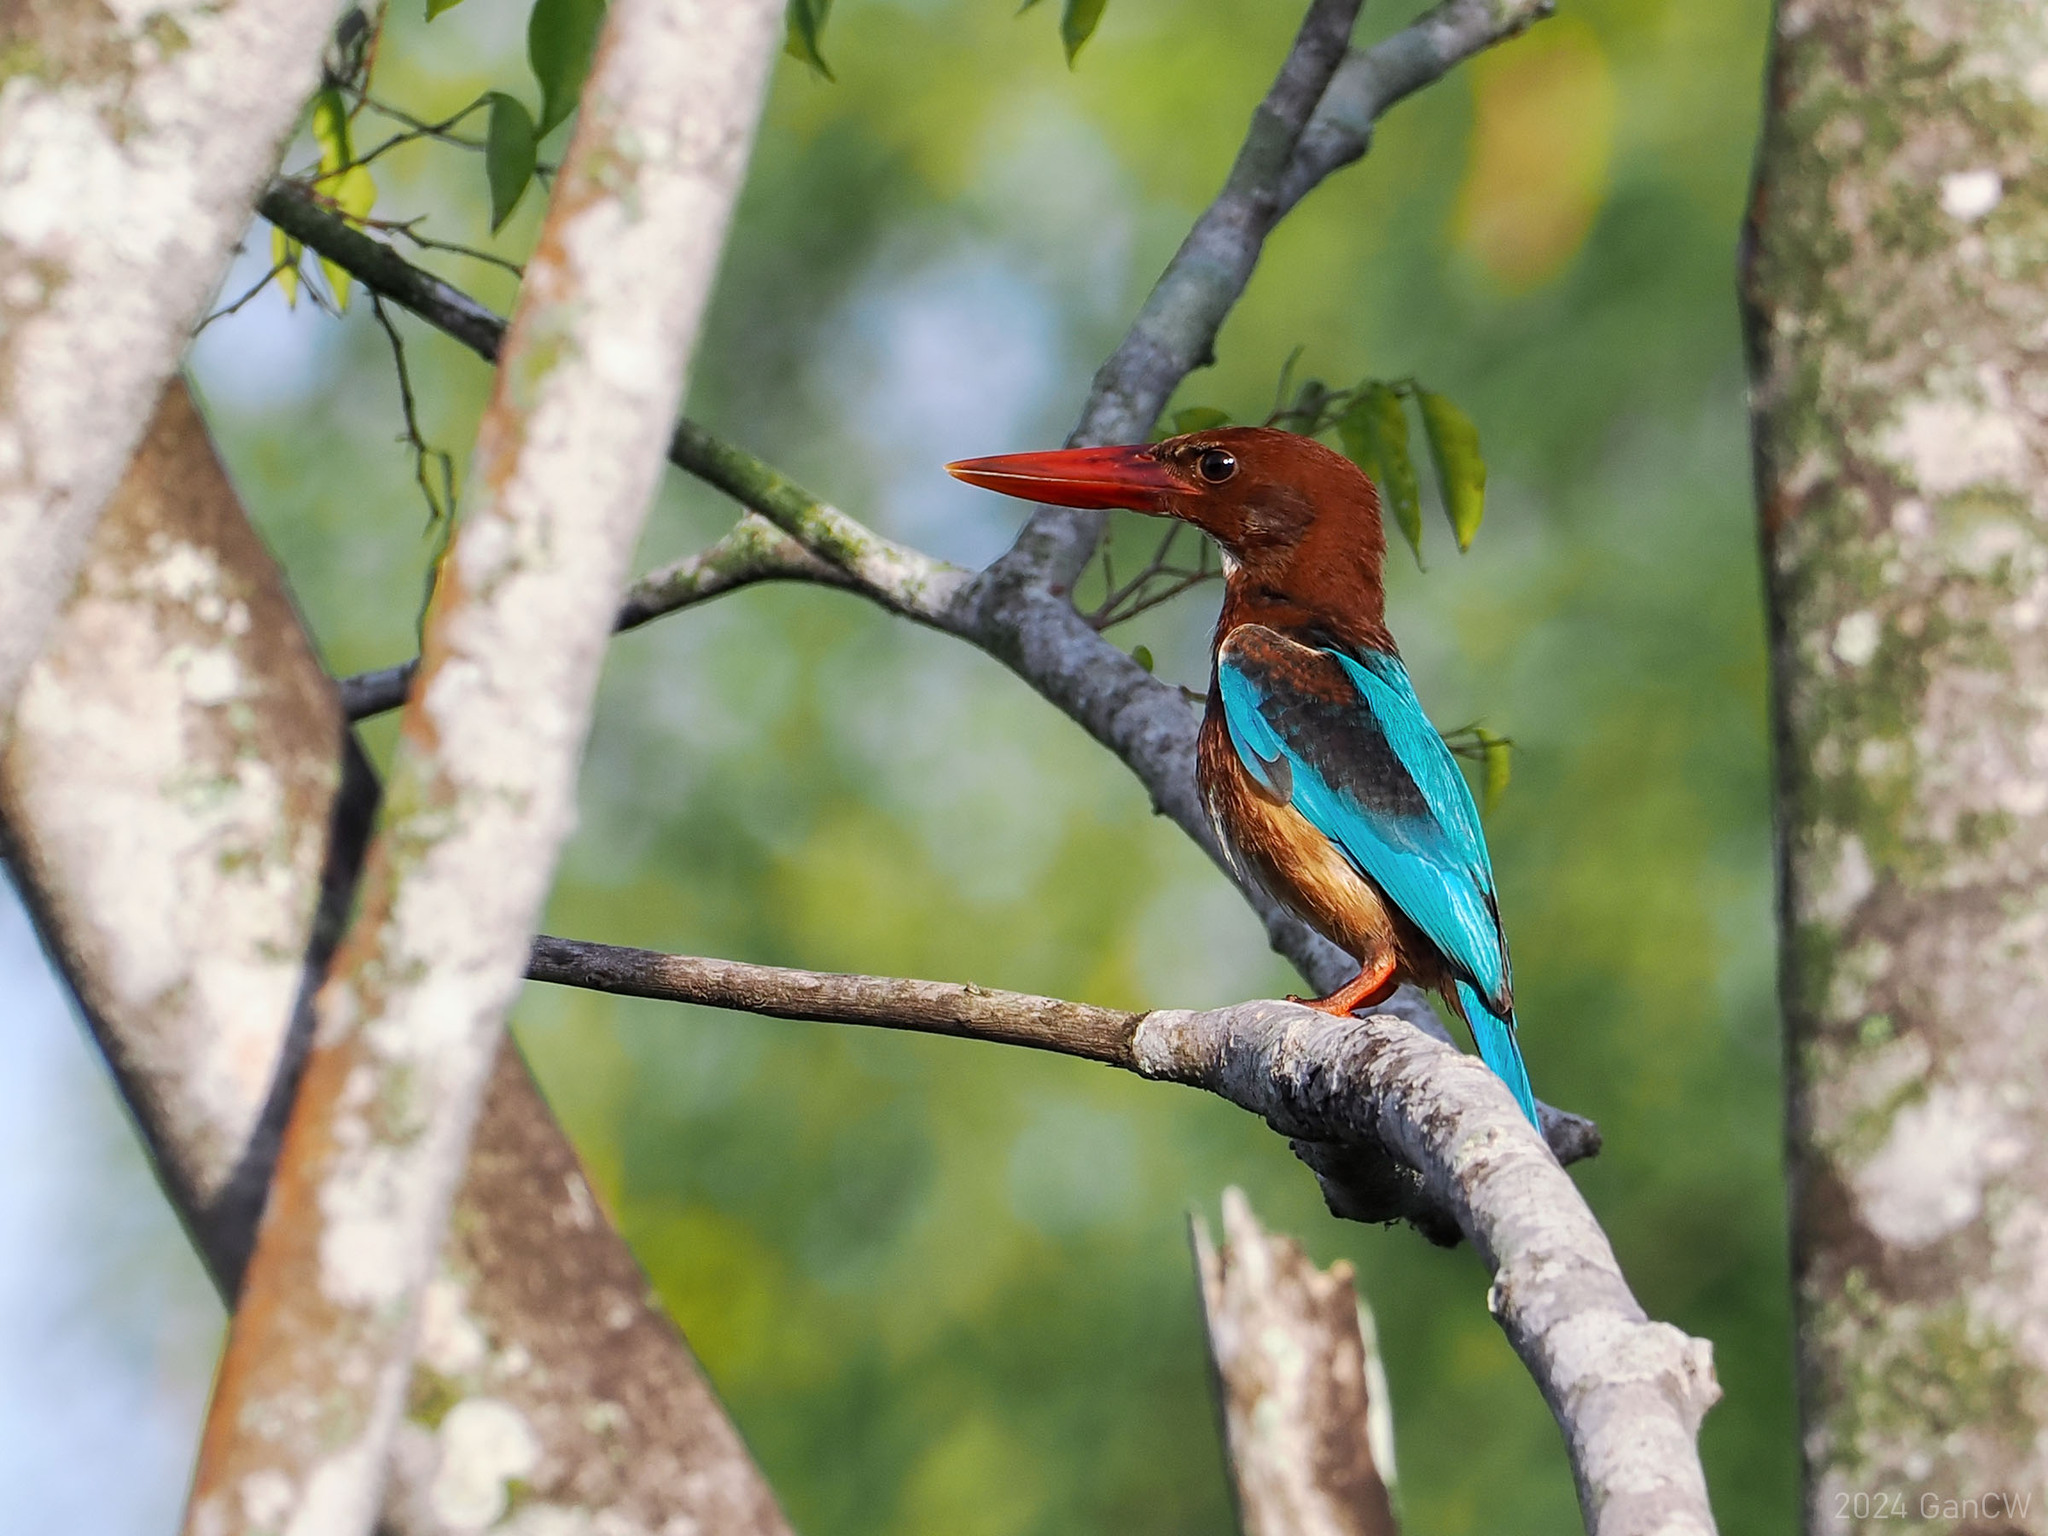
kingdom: Animalia
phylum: Chordata
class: Aves
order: Coraciiformes
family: Alcedinidae
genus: Halcyon
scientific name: Halcyon smyrnensis
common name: White-throated kingfisher
